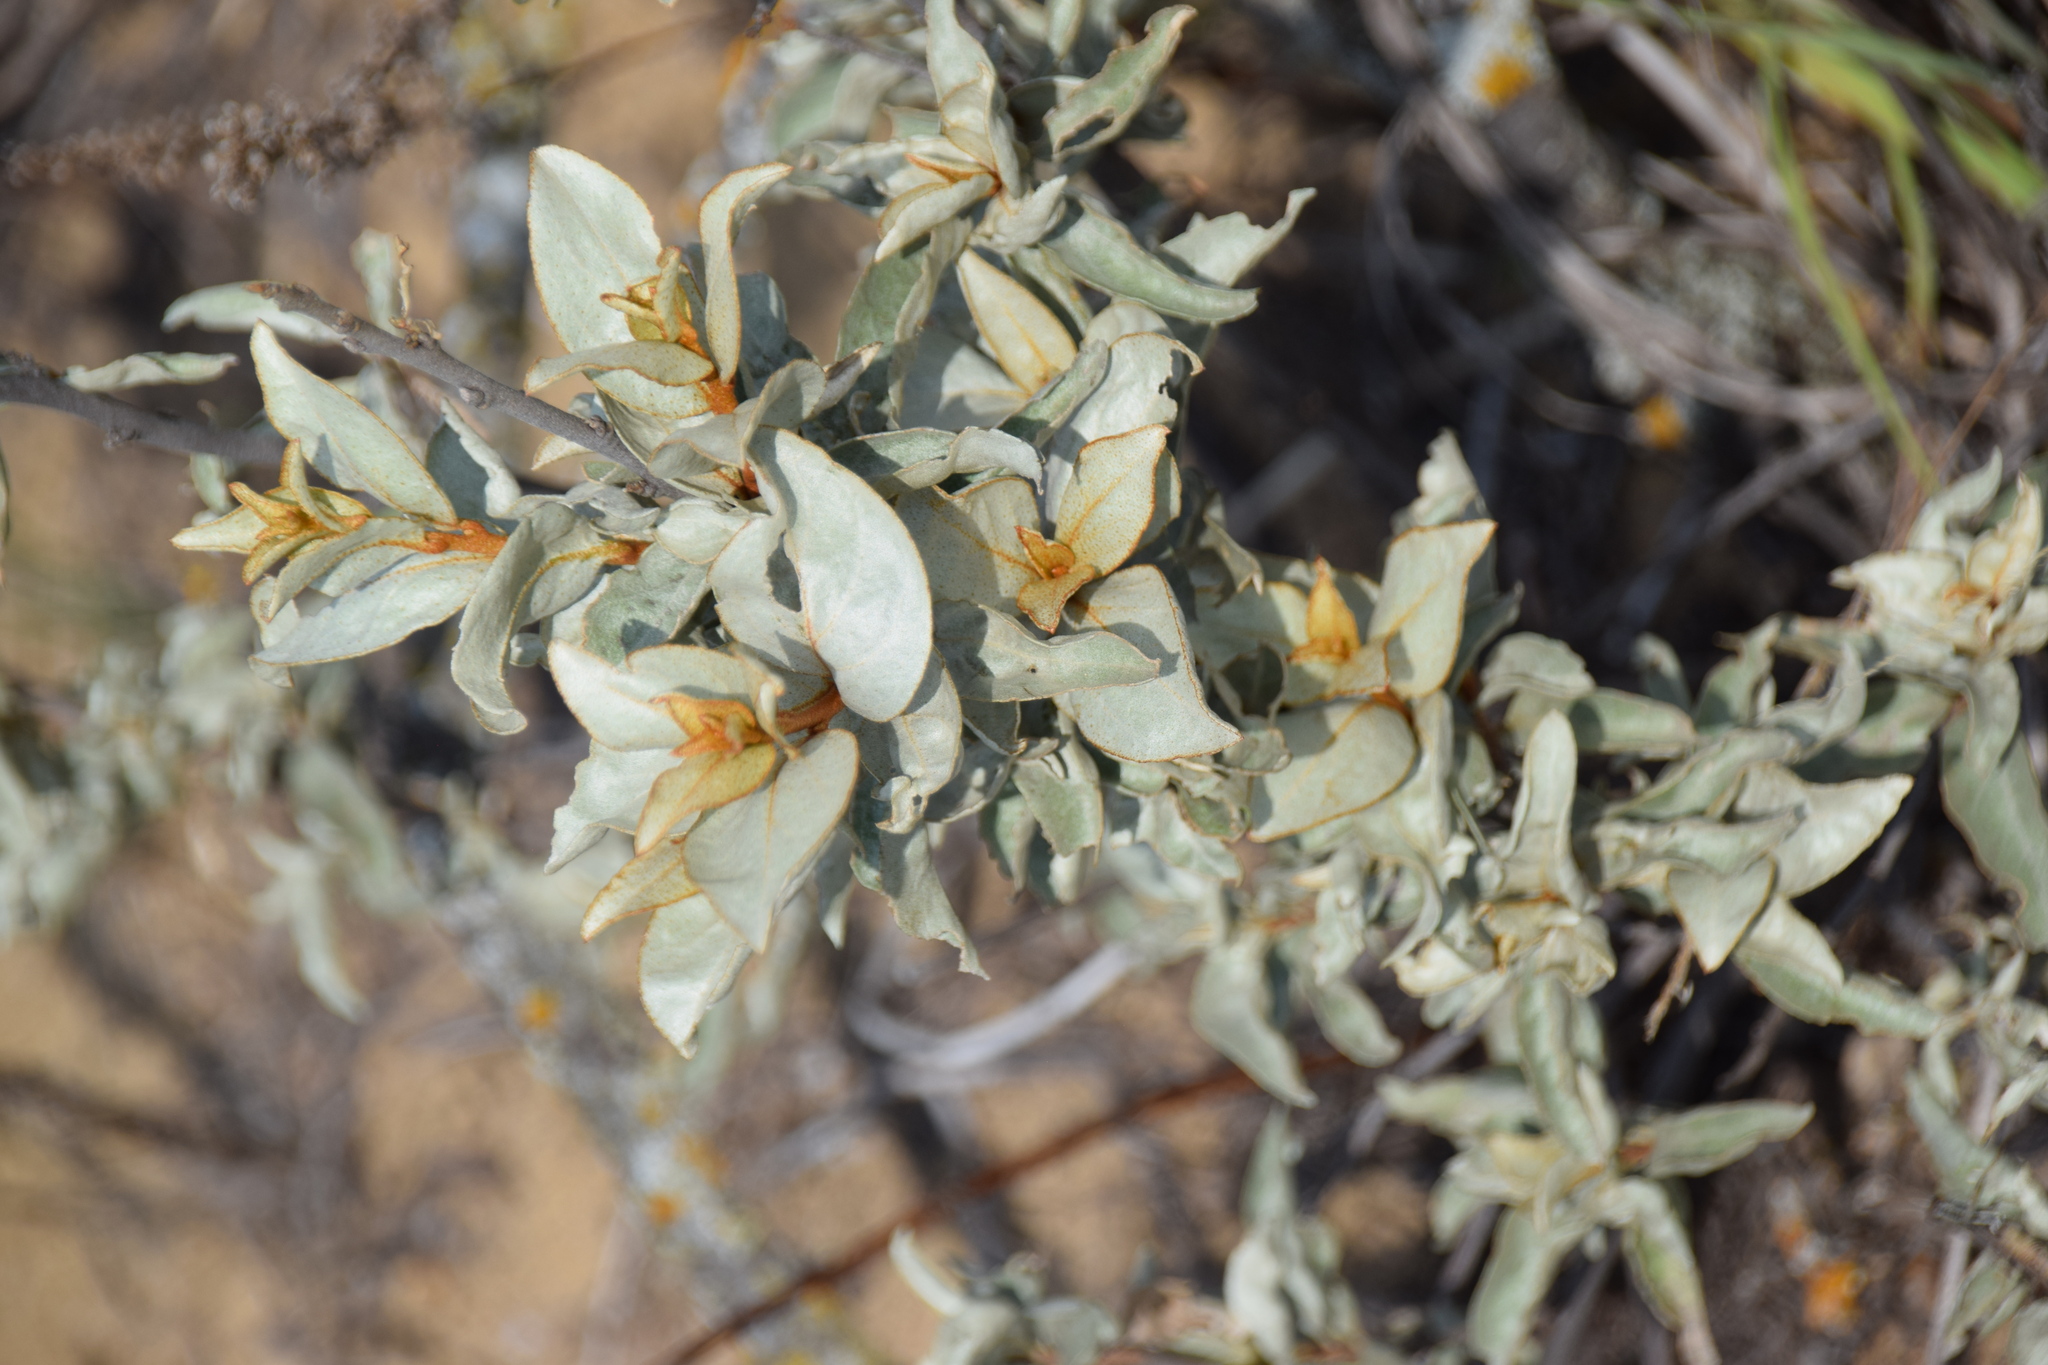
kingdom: Plantae
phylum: Tracheophyta
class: Magnoliopsida
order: Rosales
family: Elaeagnaceae
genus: Elaeagnus
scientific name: Elaeagnus commutata
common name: Silverberry
